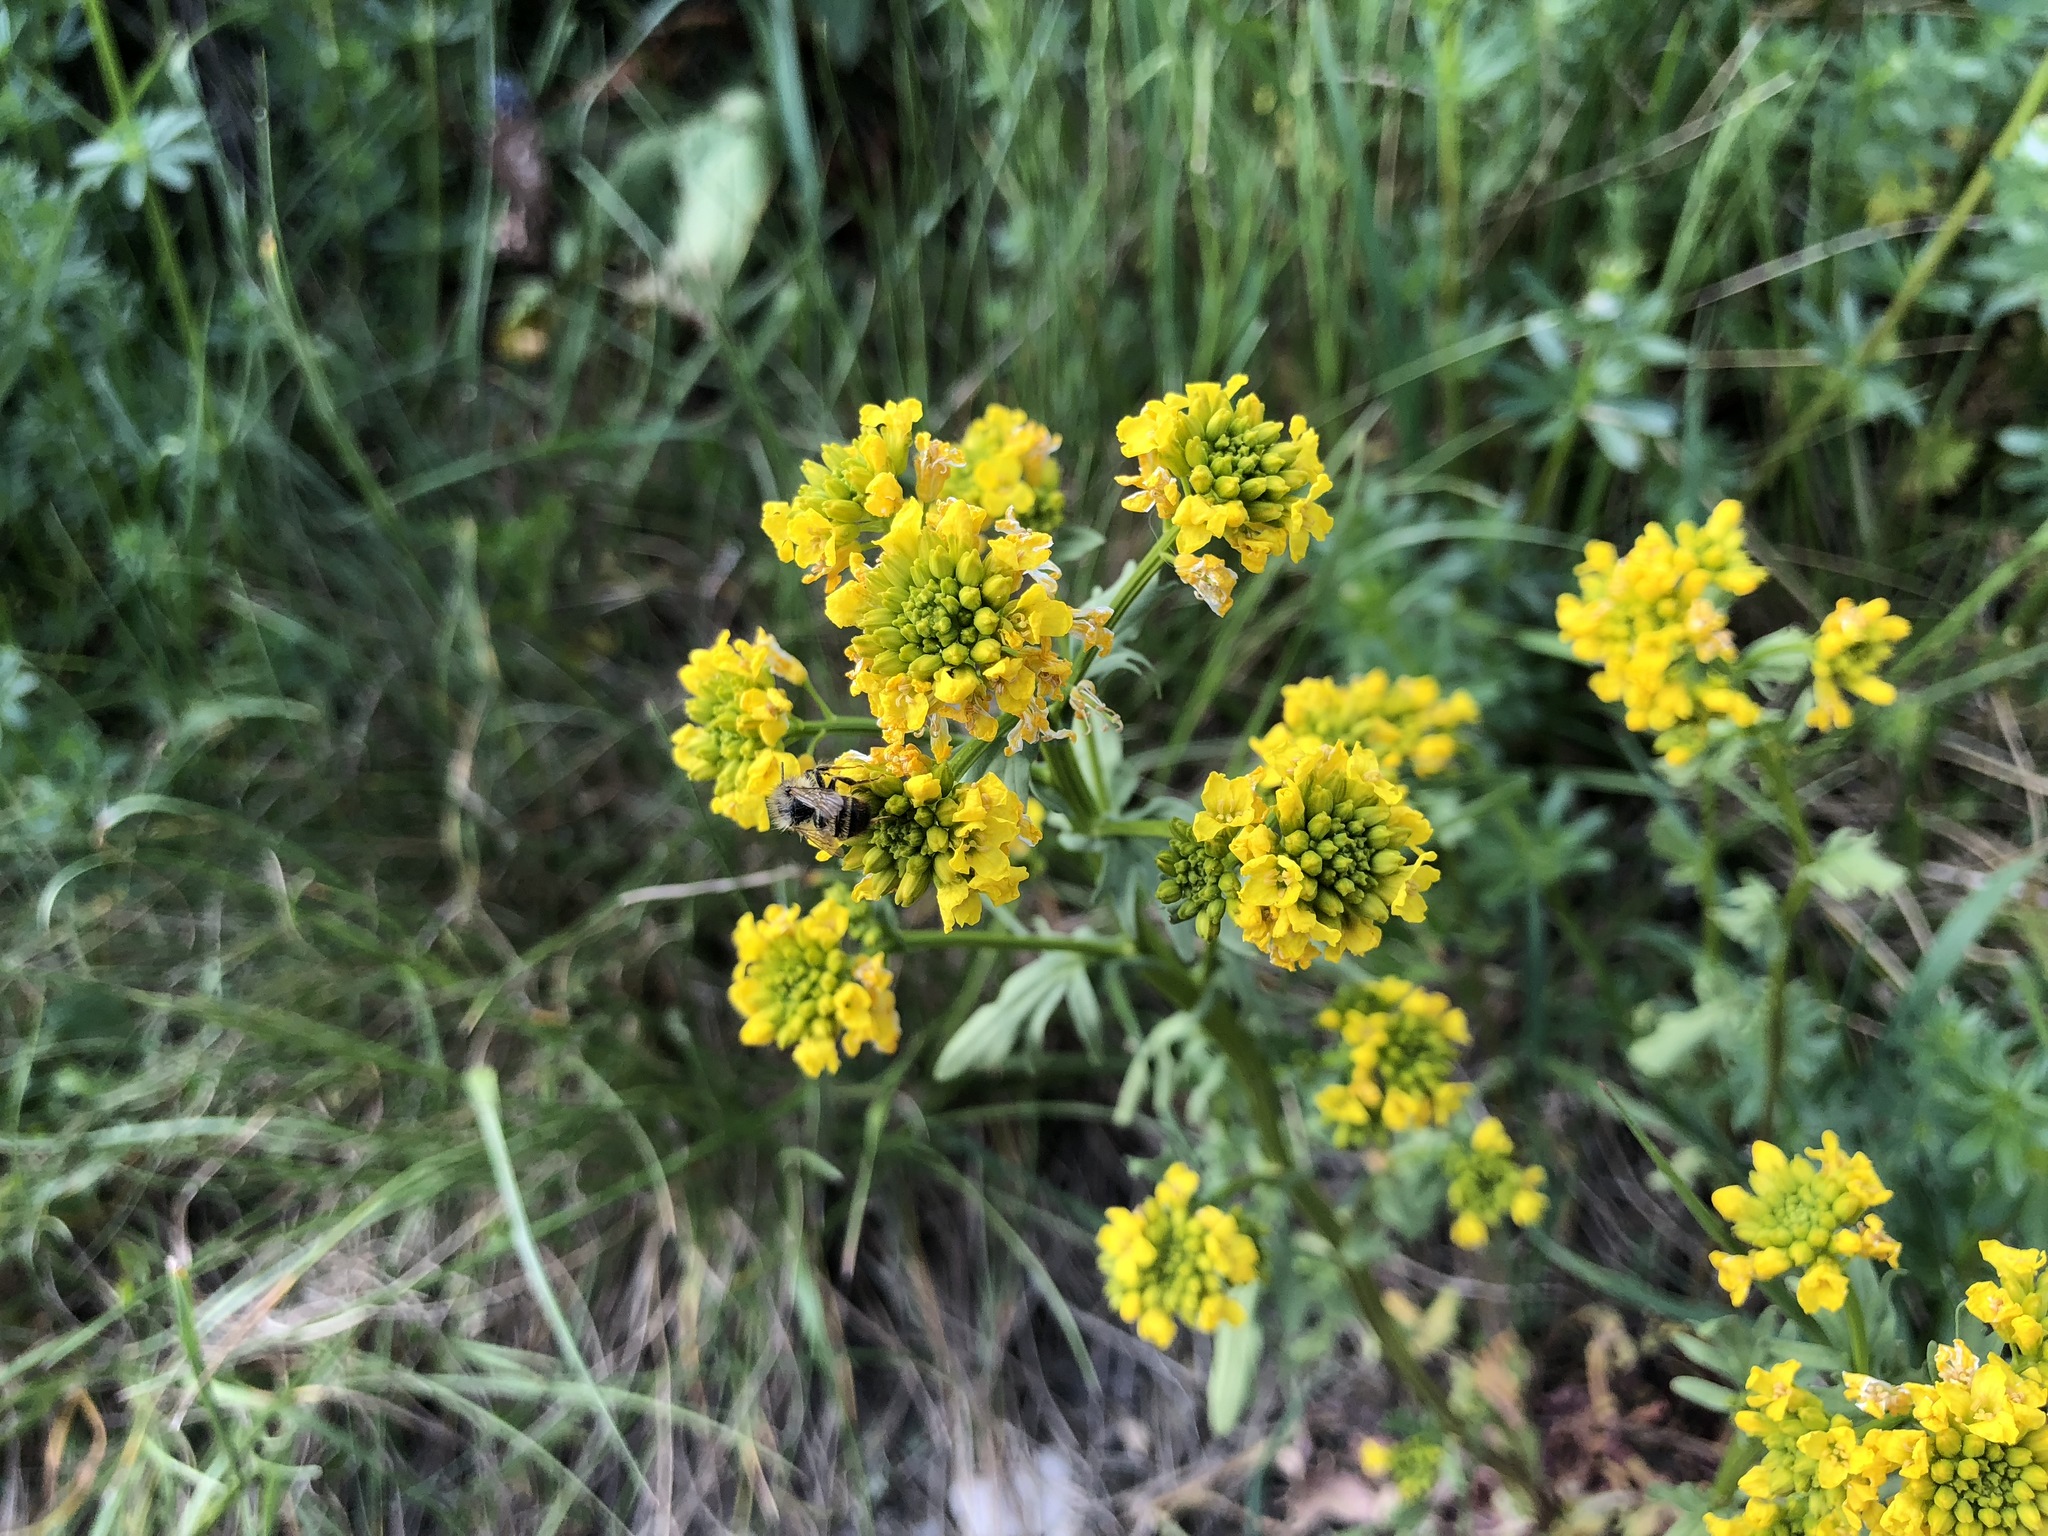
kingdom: Plantae
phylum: Tracheophyta
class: Magnoliopsida
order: Brassicales
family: Brassicaceae
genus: Barbarea
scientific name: Barbarea vulgaris
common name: Cressy-greens
